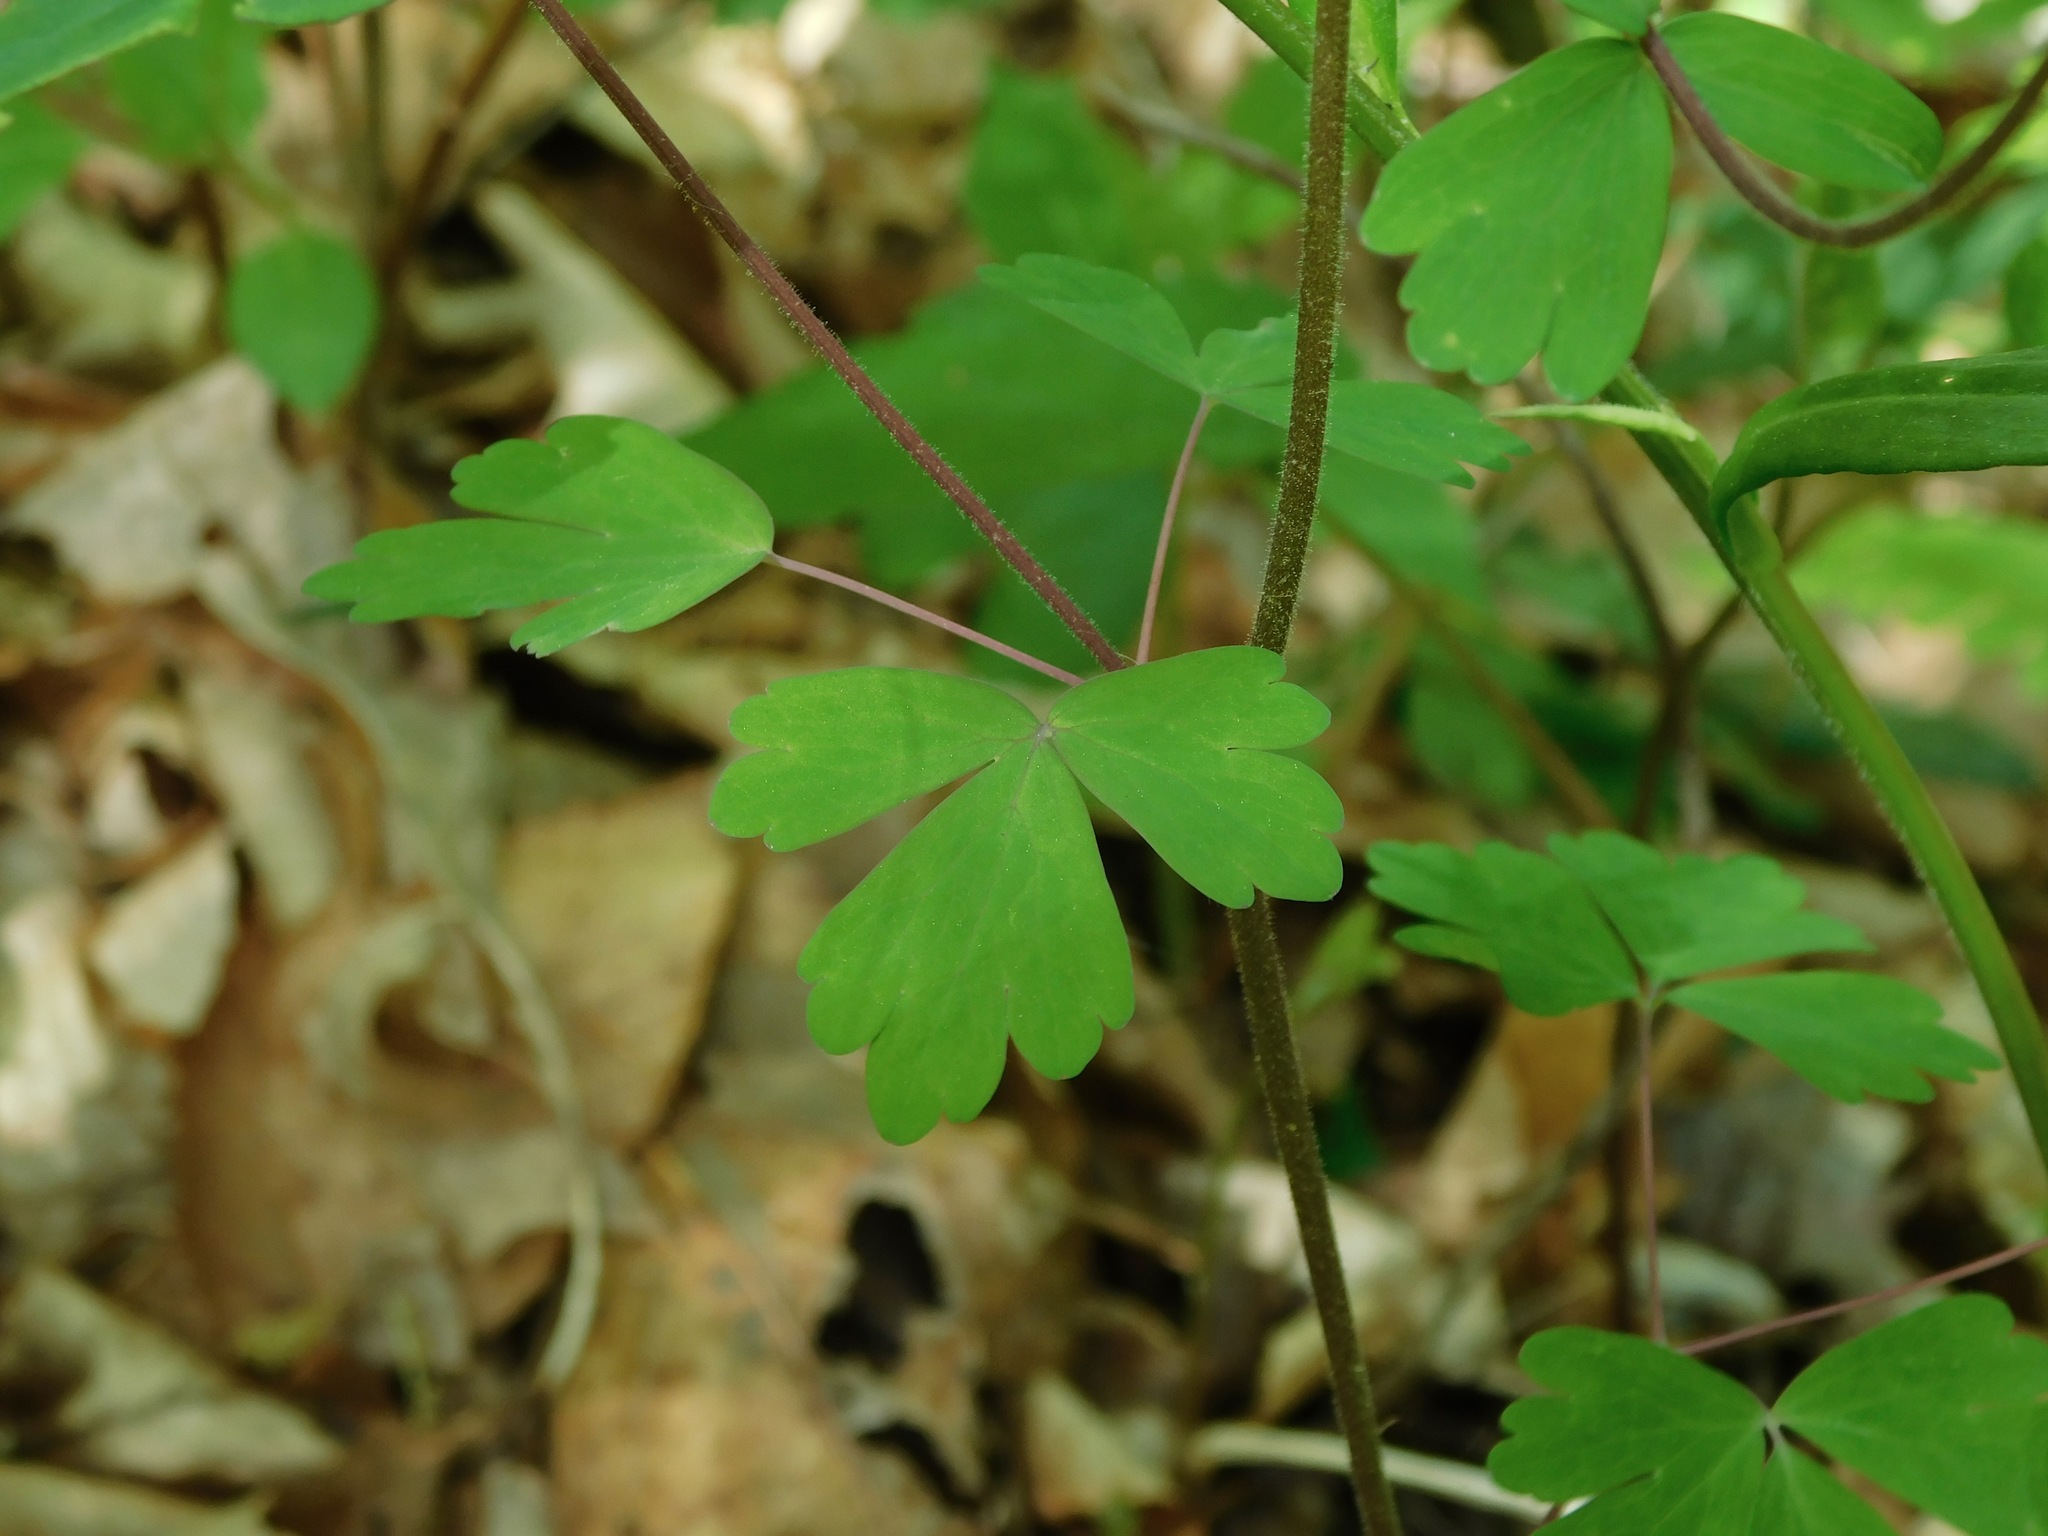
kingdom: Plantae
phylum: Tracheophyta
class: Magnoliopsida
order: Ranunculales
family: Ranunculaceae
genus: Aquilegia
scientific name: Aquilegia canadensis
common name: American columbine
